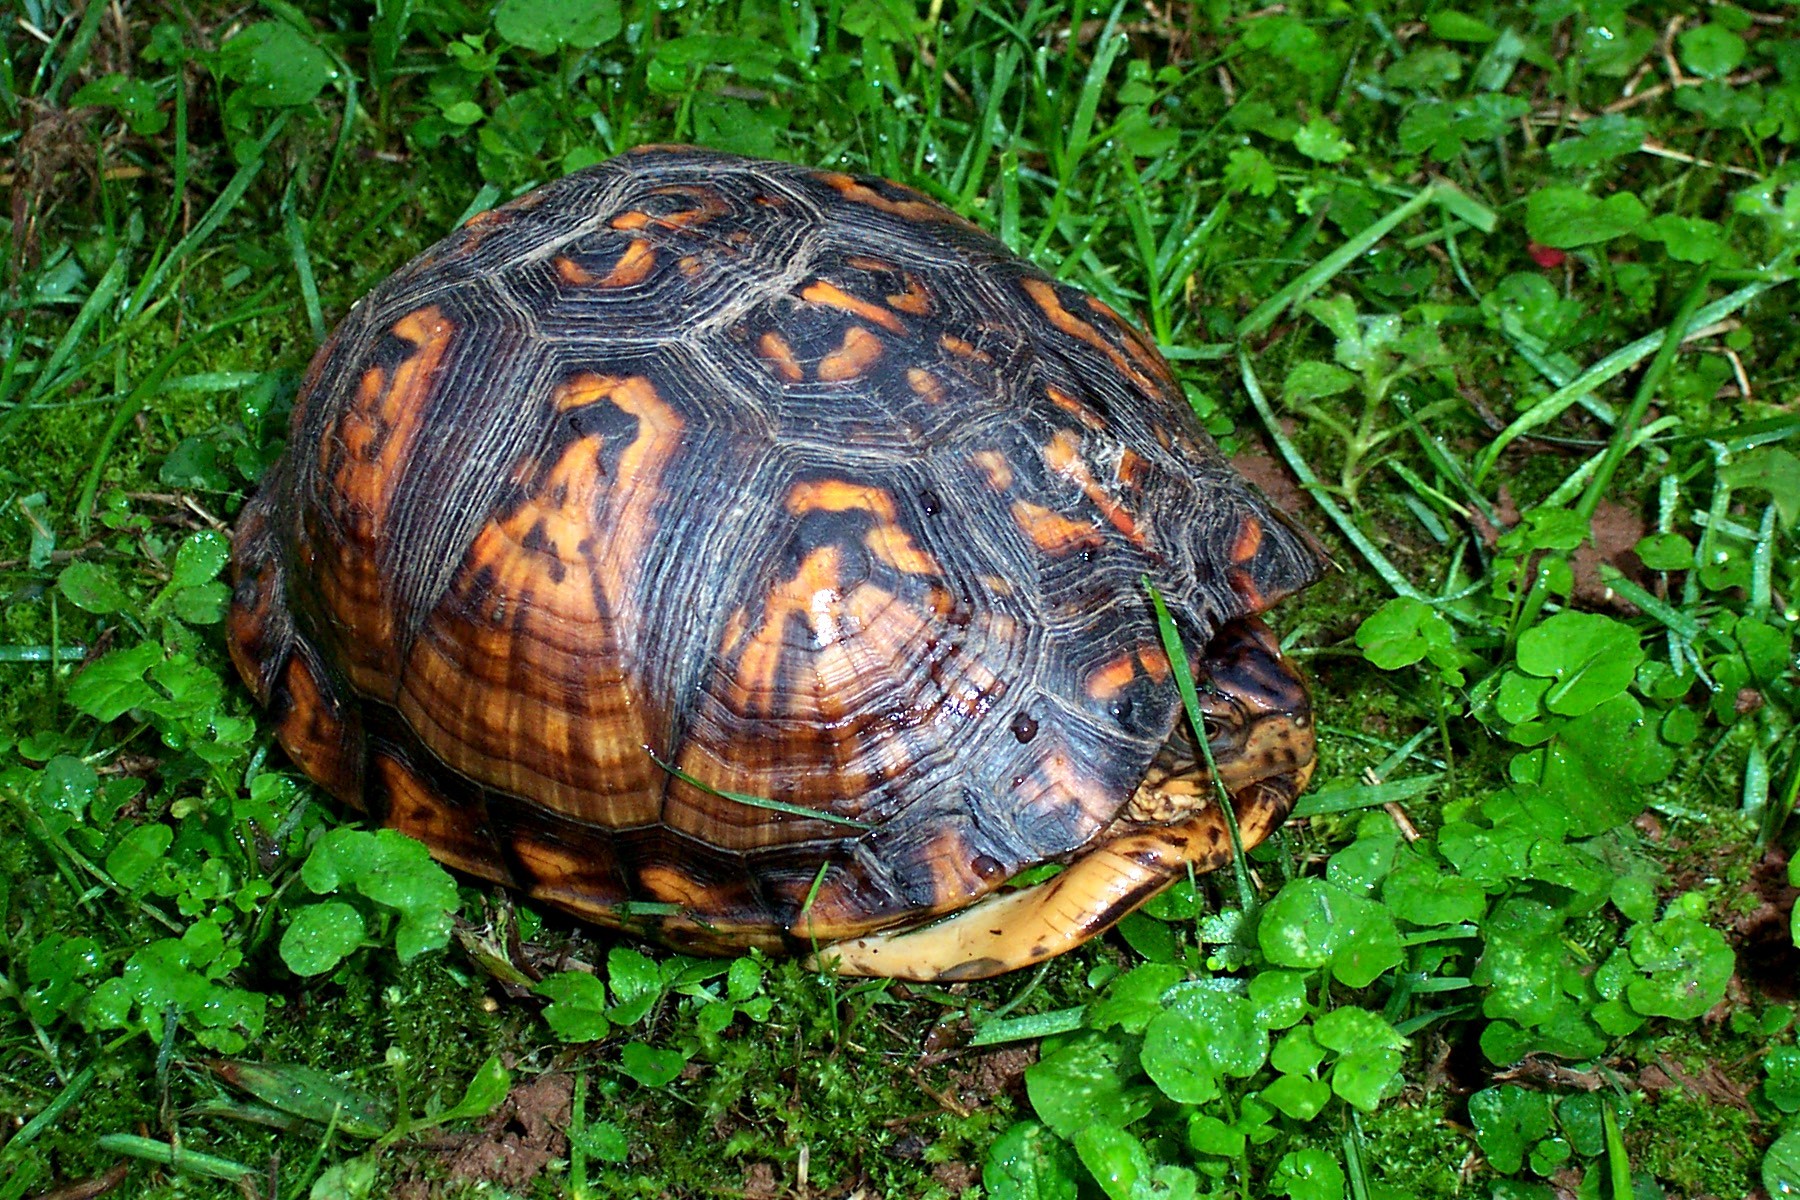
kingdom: Animalia
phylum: Chordata
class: Testudines
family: Emydidae
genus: Terrapene
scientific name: Terrapene carolina
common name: Common box turtle
